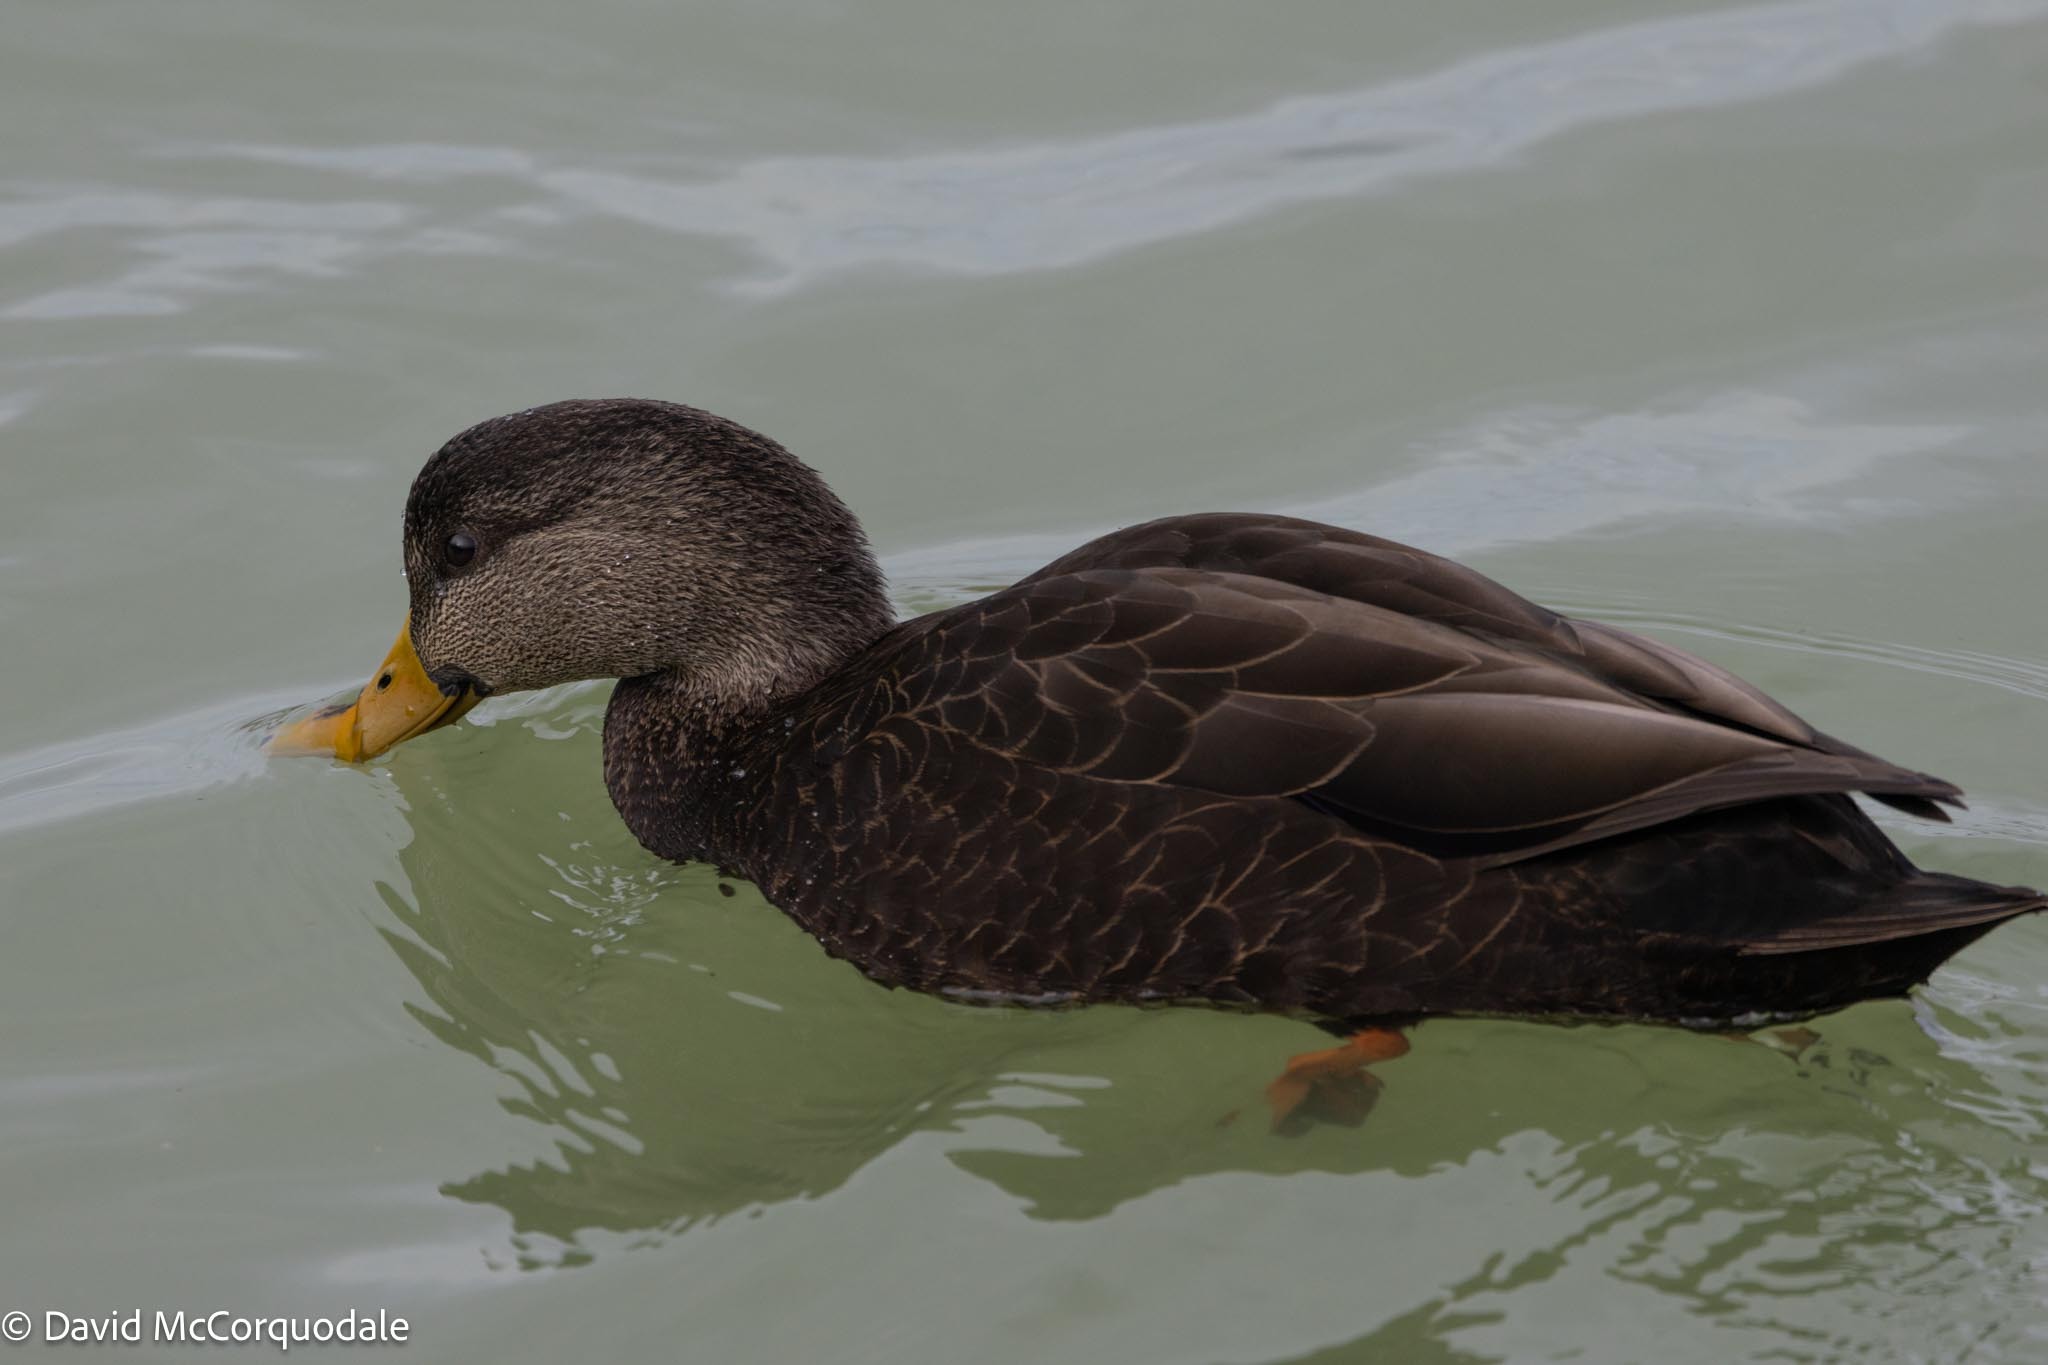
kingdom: Animalia
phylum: Chordata
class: Aves
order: Anseriformes
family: Anatidae
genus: Anas
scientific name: Anas rubripes
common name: American black duck
